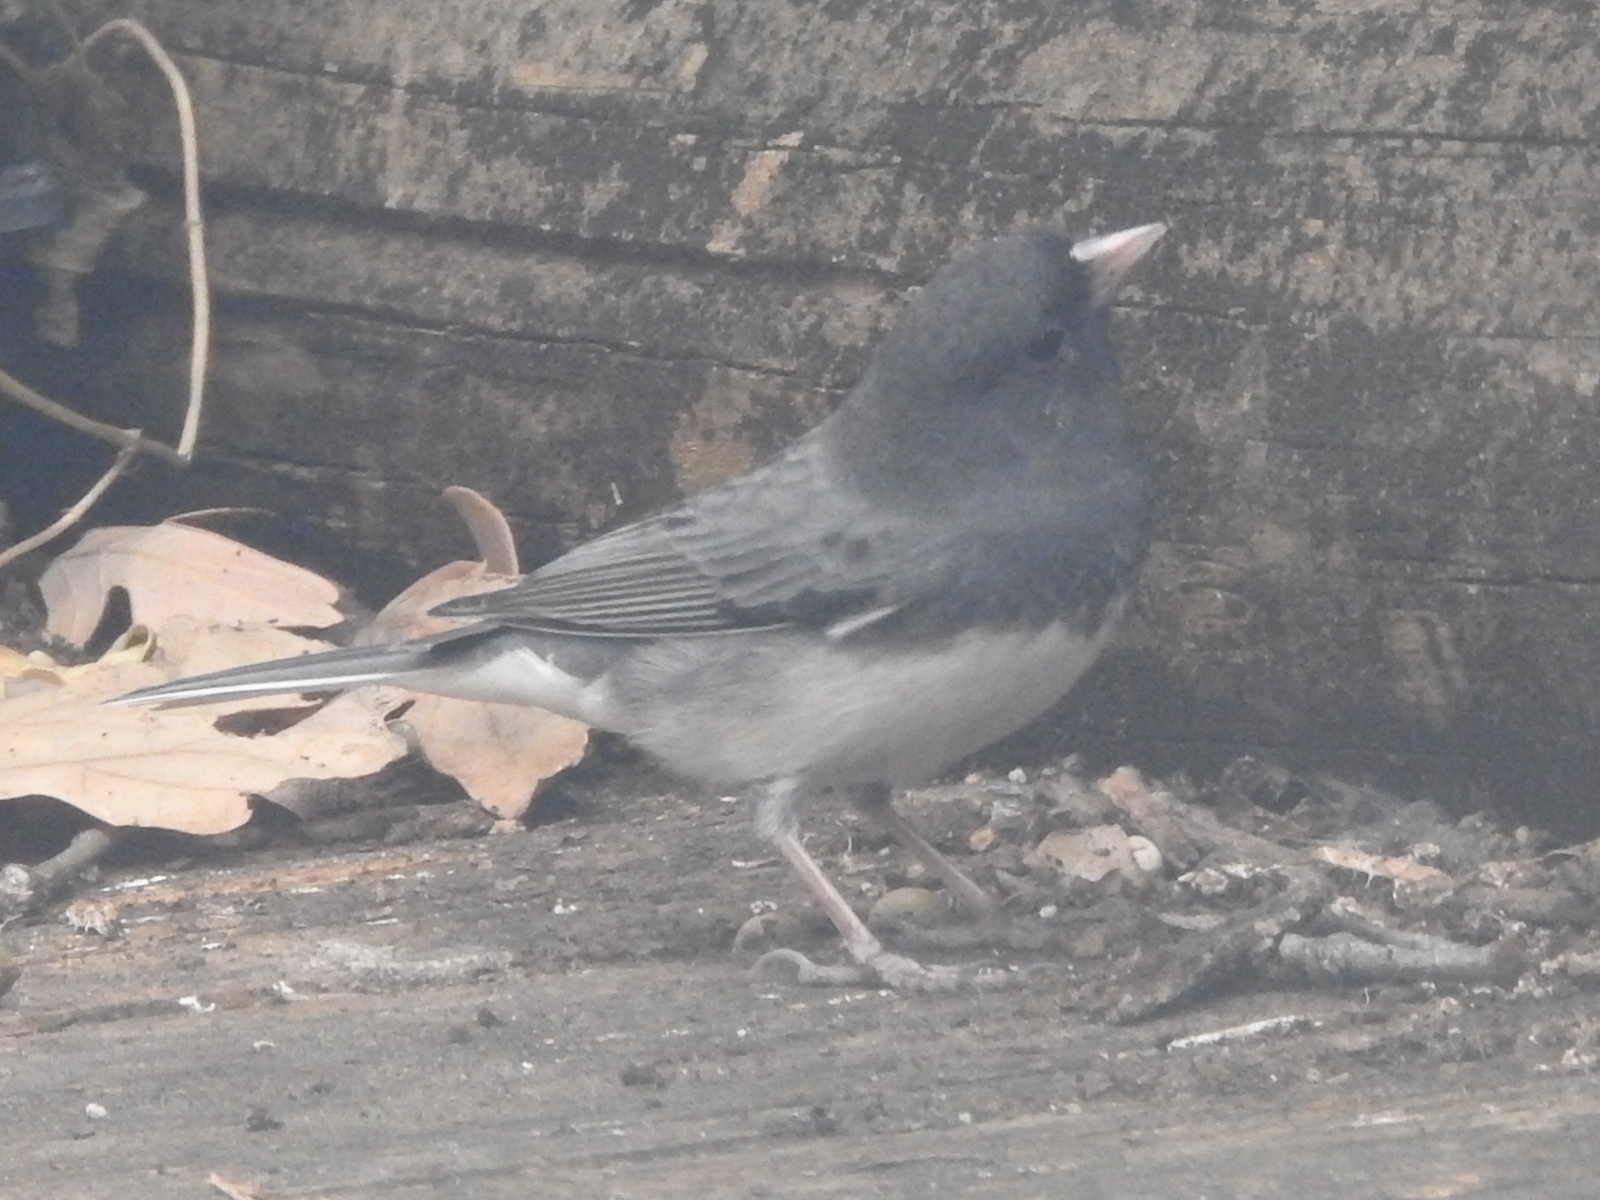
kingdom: Animalia
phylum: Chordata
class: Aves
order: Passeriformes
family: Passerellidae
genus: Junco
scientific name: Junco hyemalis
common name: Dark-eyed junco
